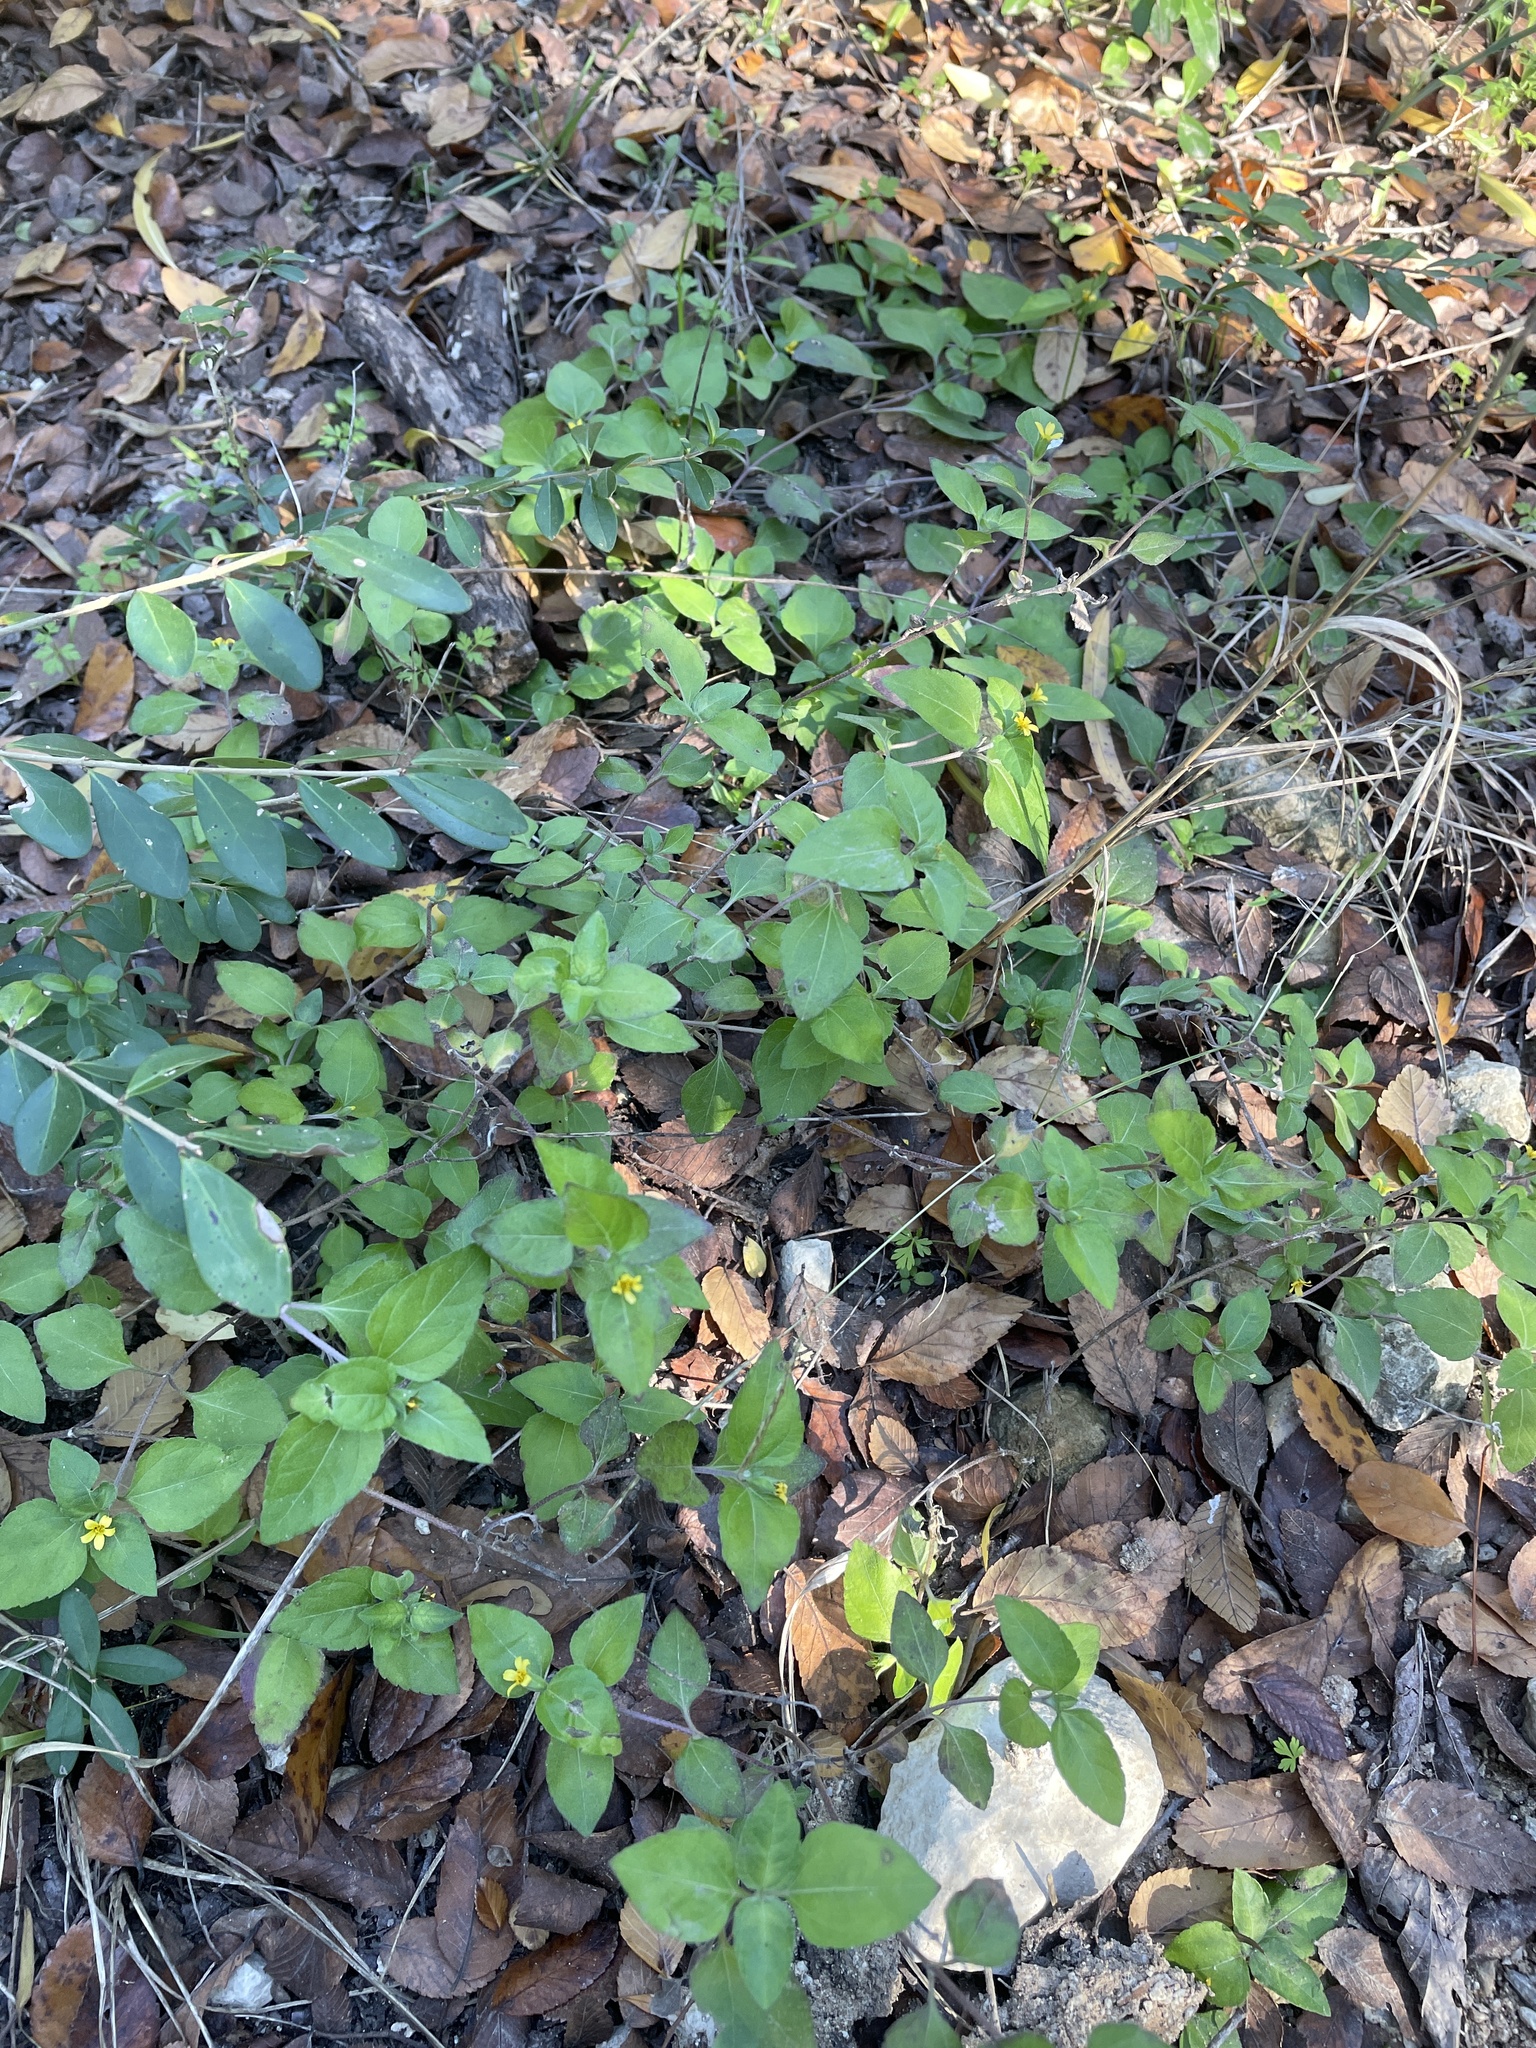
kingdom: Plantae
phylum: Tracheophyta
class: Magnoliopsida
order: Asterales
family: Asteraceae
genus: Calyptocarpus
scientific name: Calyptocarpus vialis
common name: Straggler daisy
